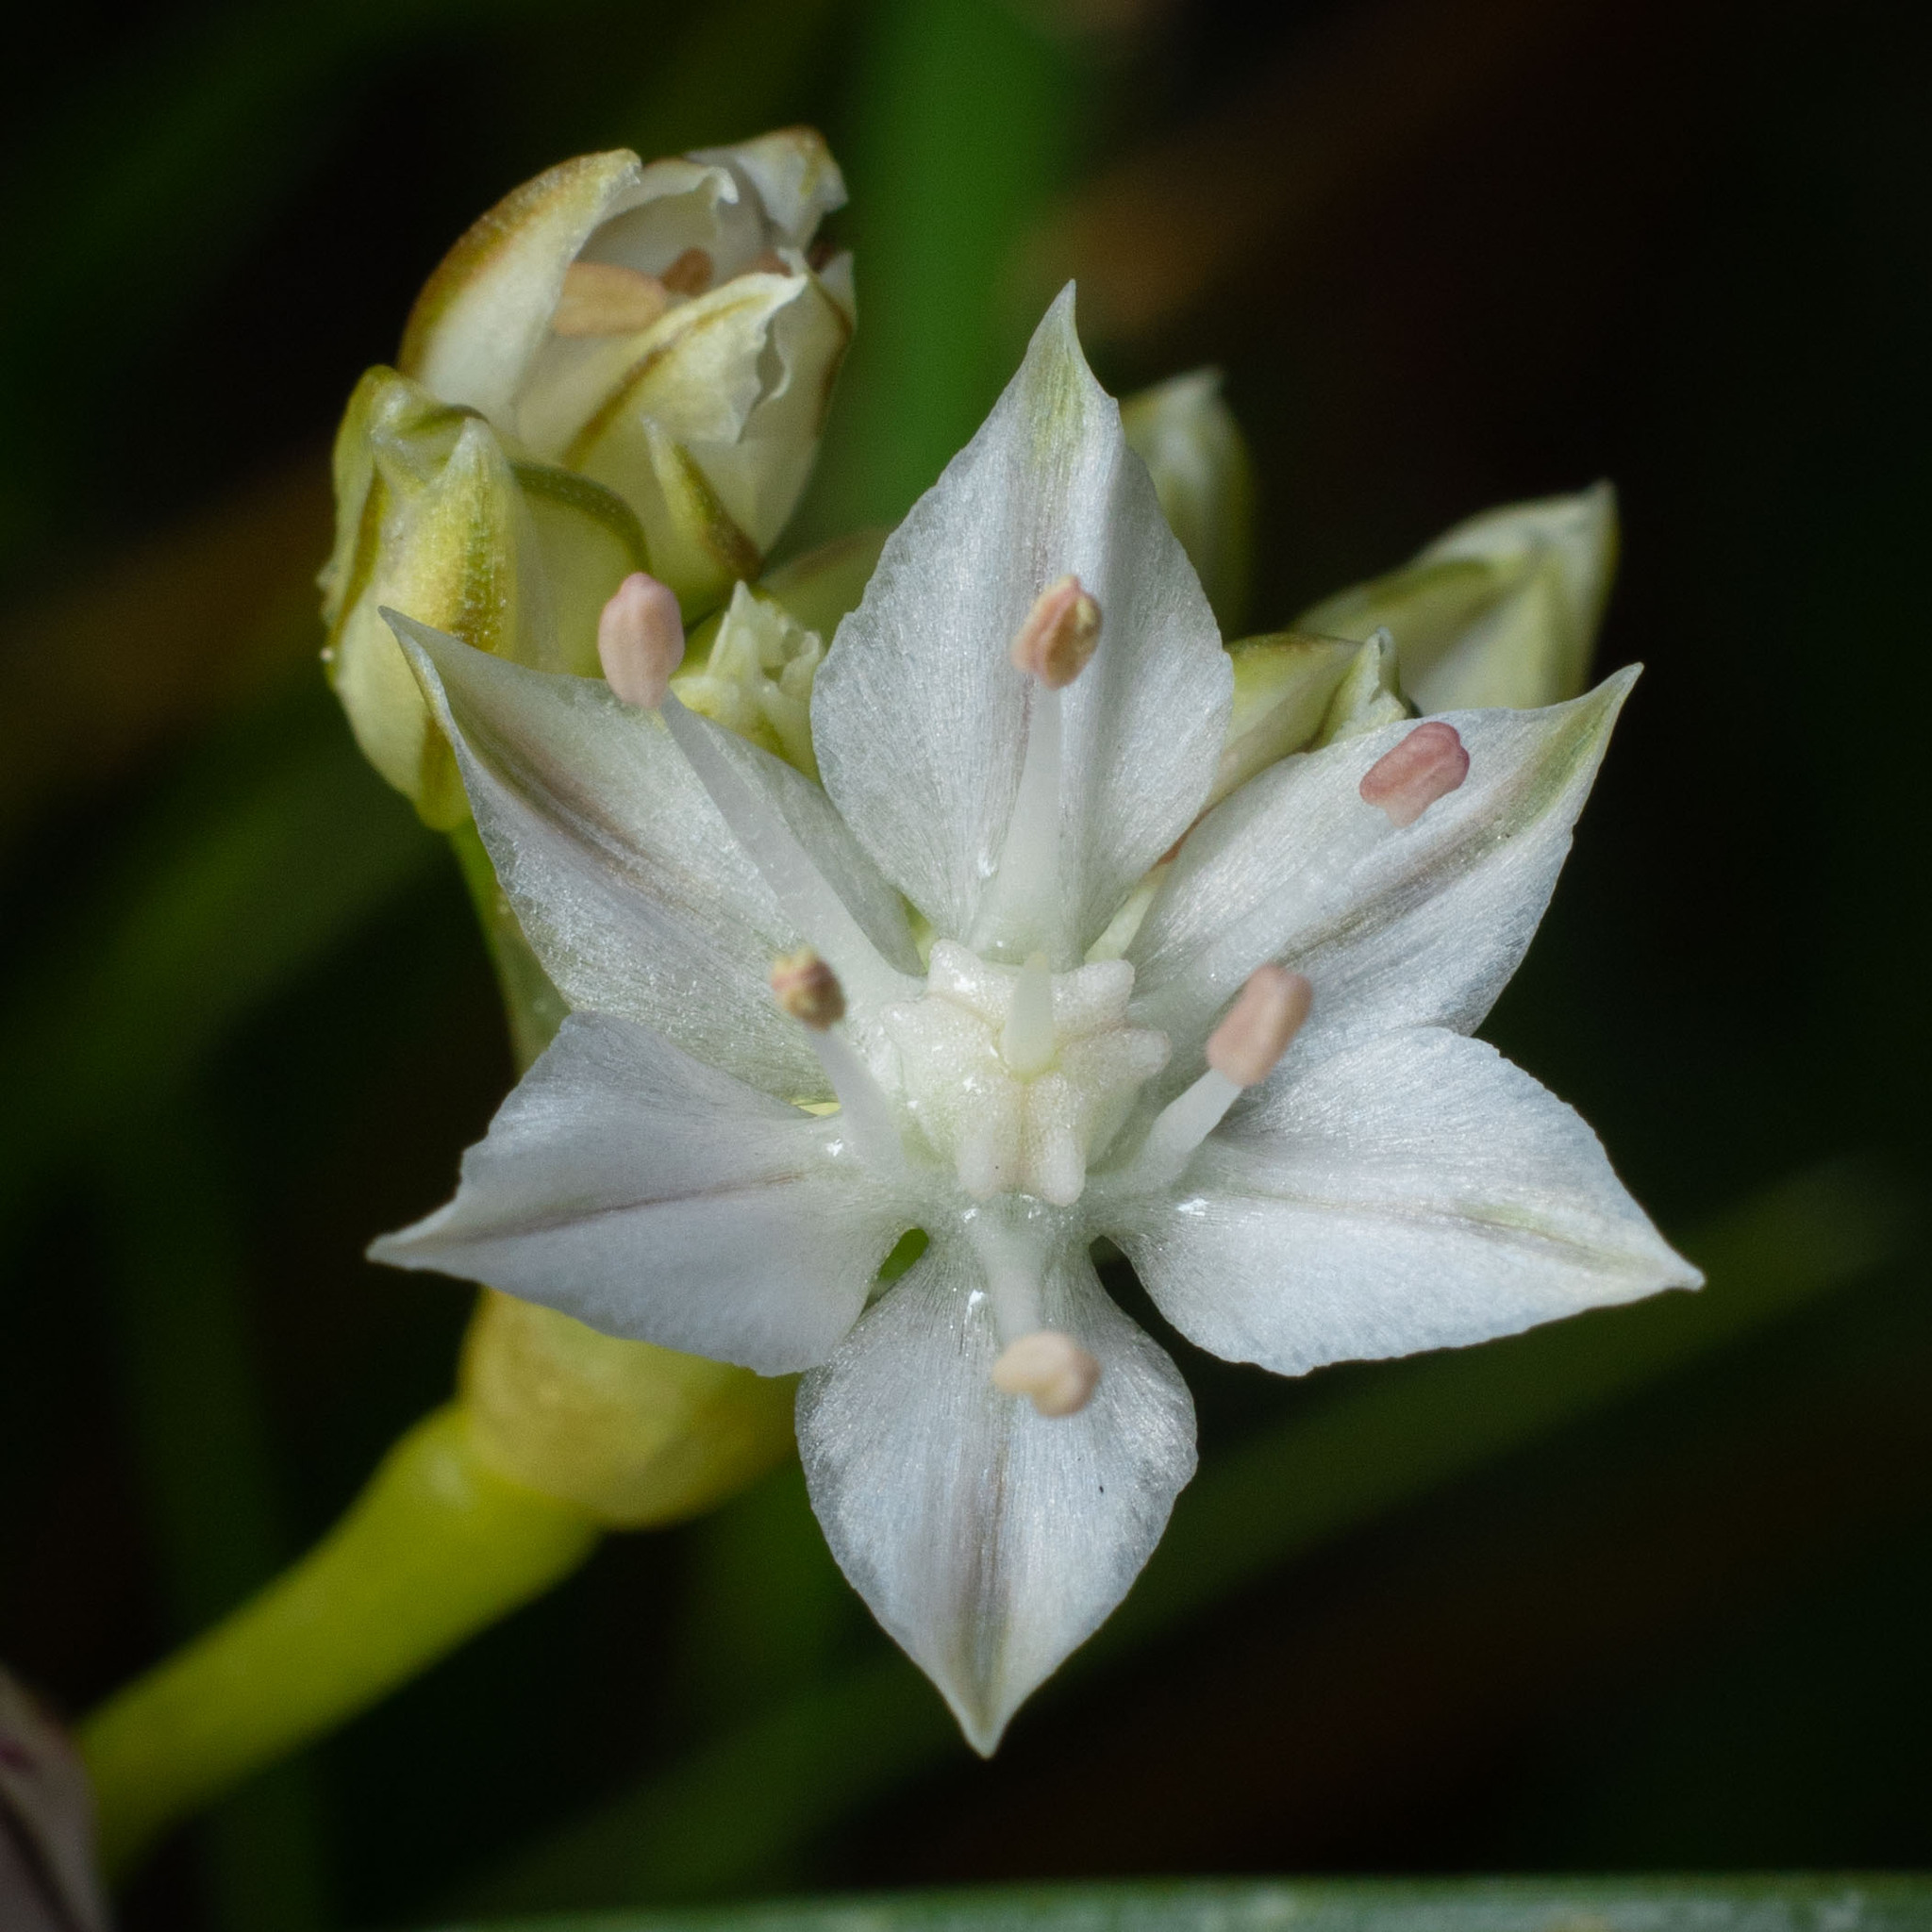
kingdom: Plantae
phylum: Tracheophyta
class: Liliopsida
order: Asparagales
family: Amaryllidaceae
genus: Allium
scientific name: Allium haematochiton
